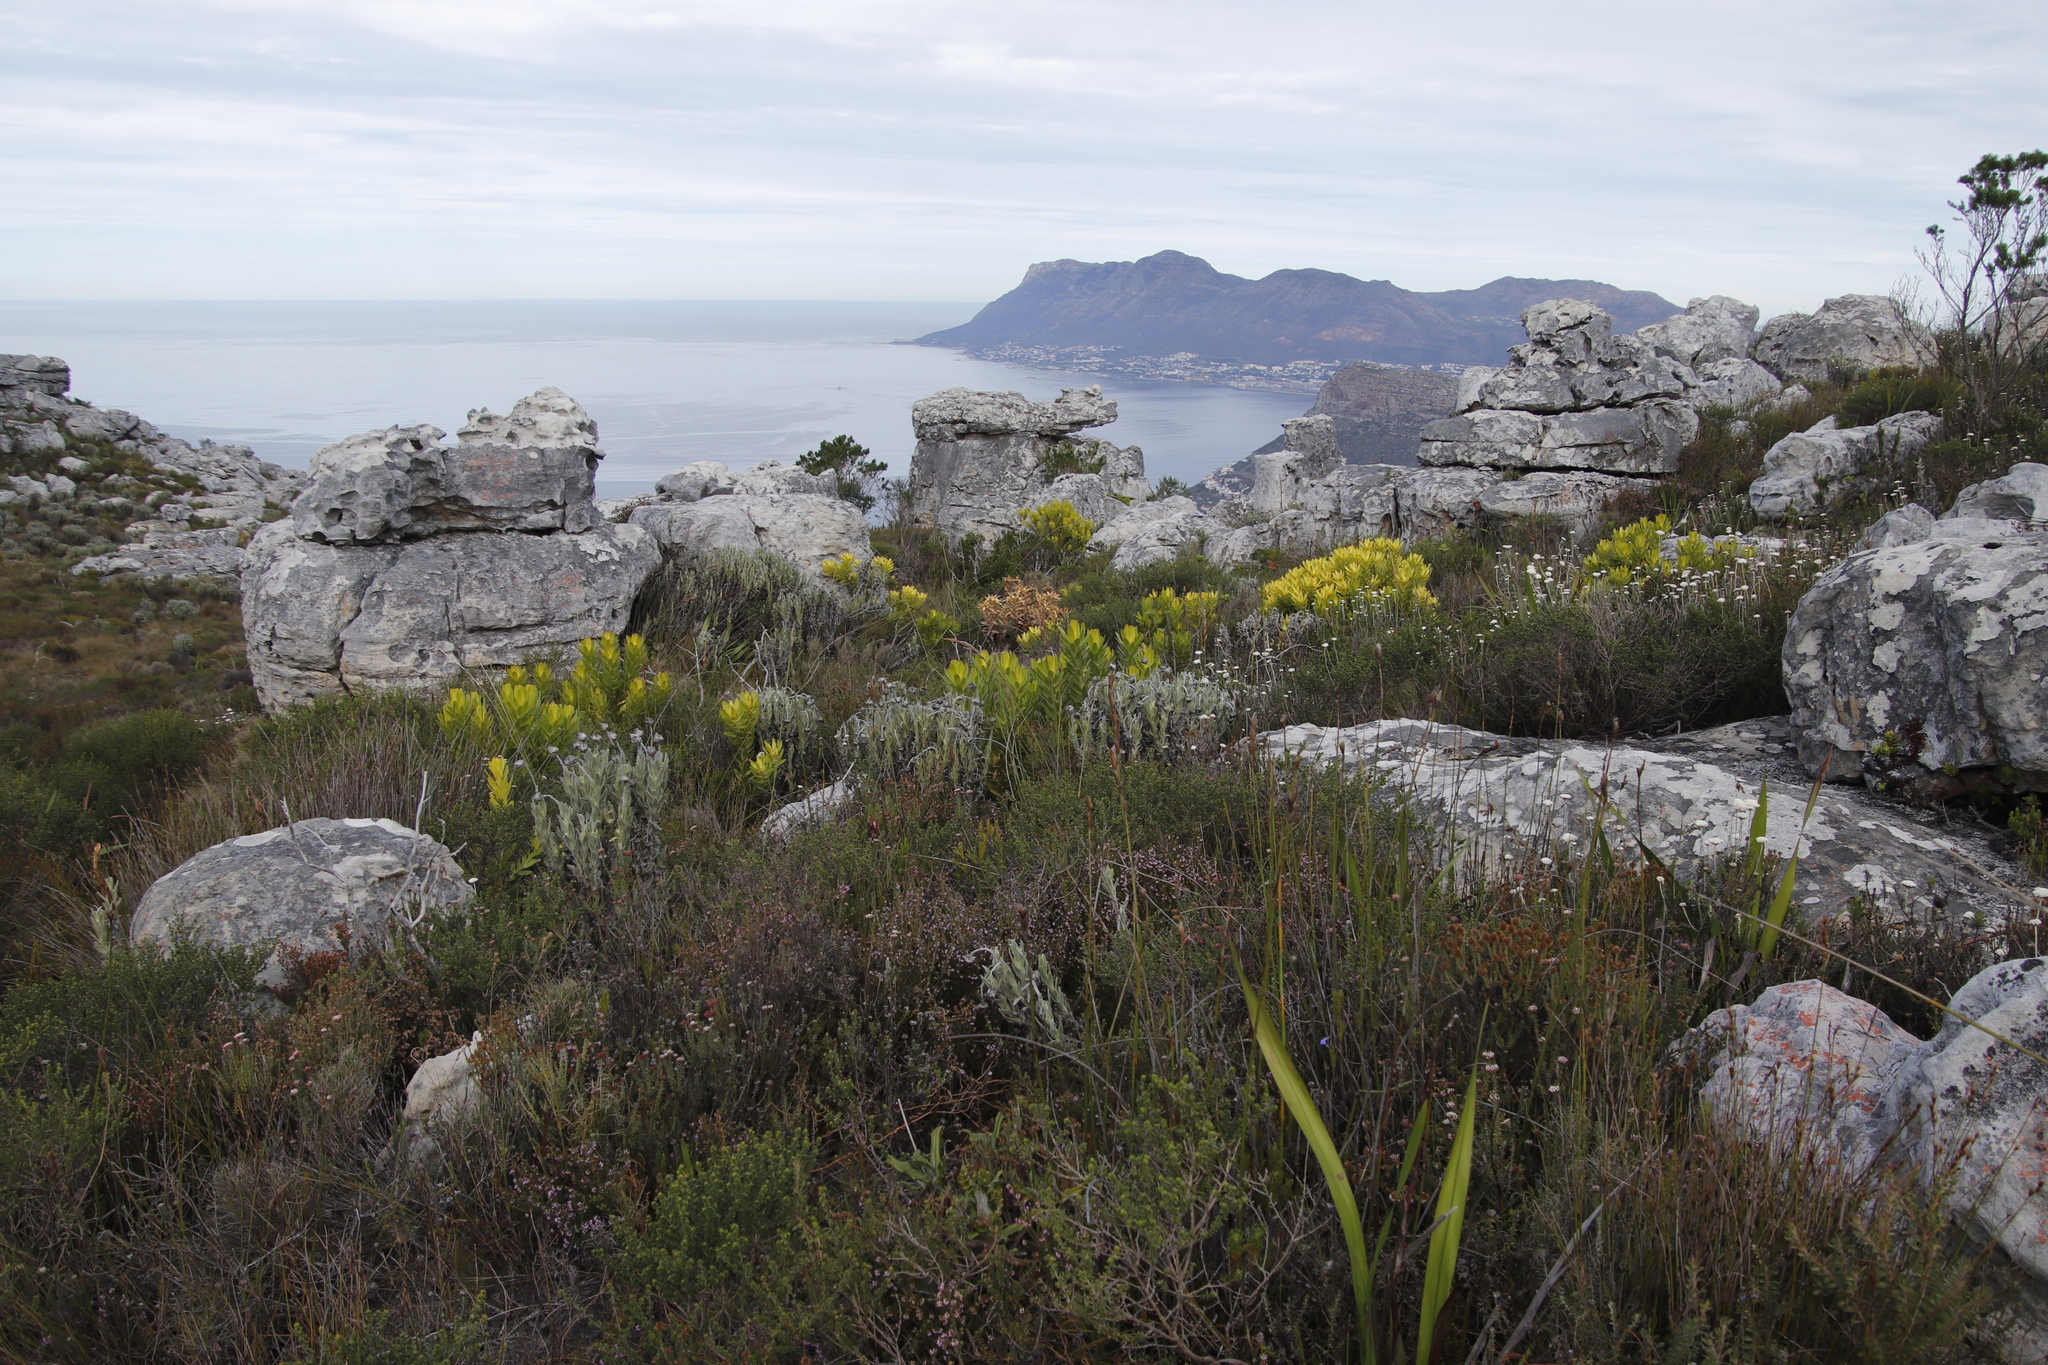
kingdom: Plantae
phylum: Tracheophyta
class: Magnoliopsida
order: Proteales
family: Proteaceae
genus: Leucadendron
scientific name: Leucadendron laureolum
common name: Golden sunshinebush
